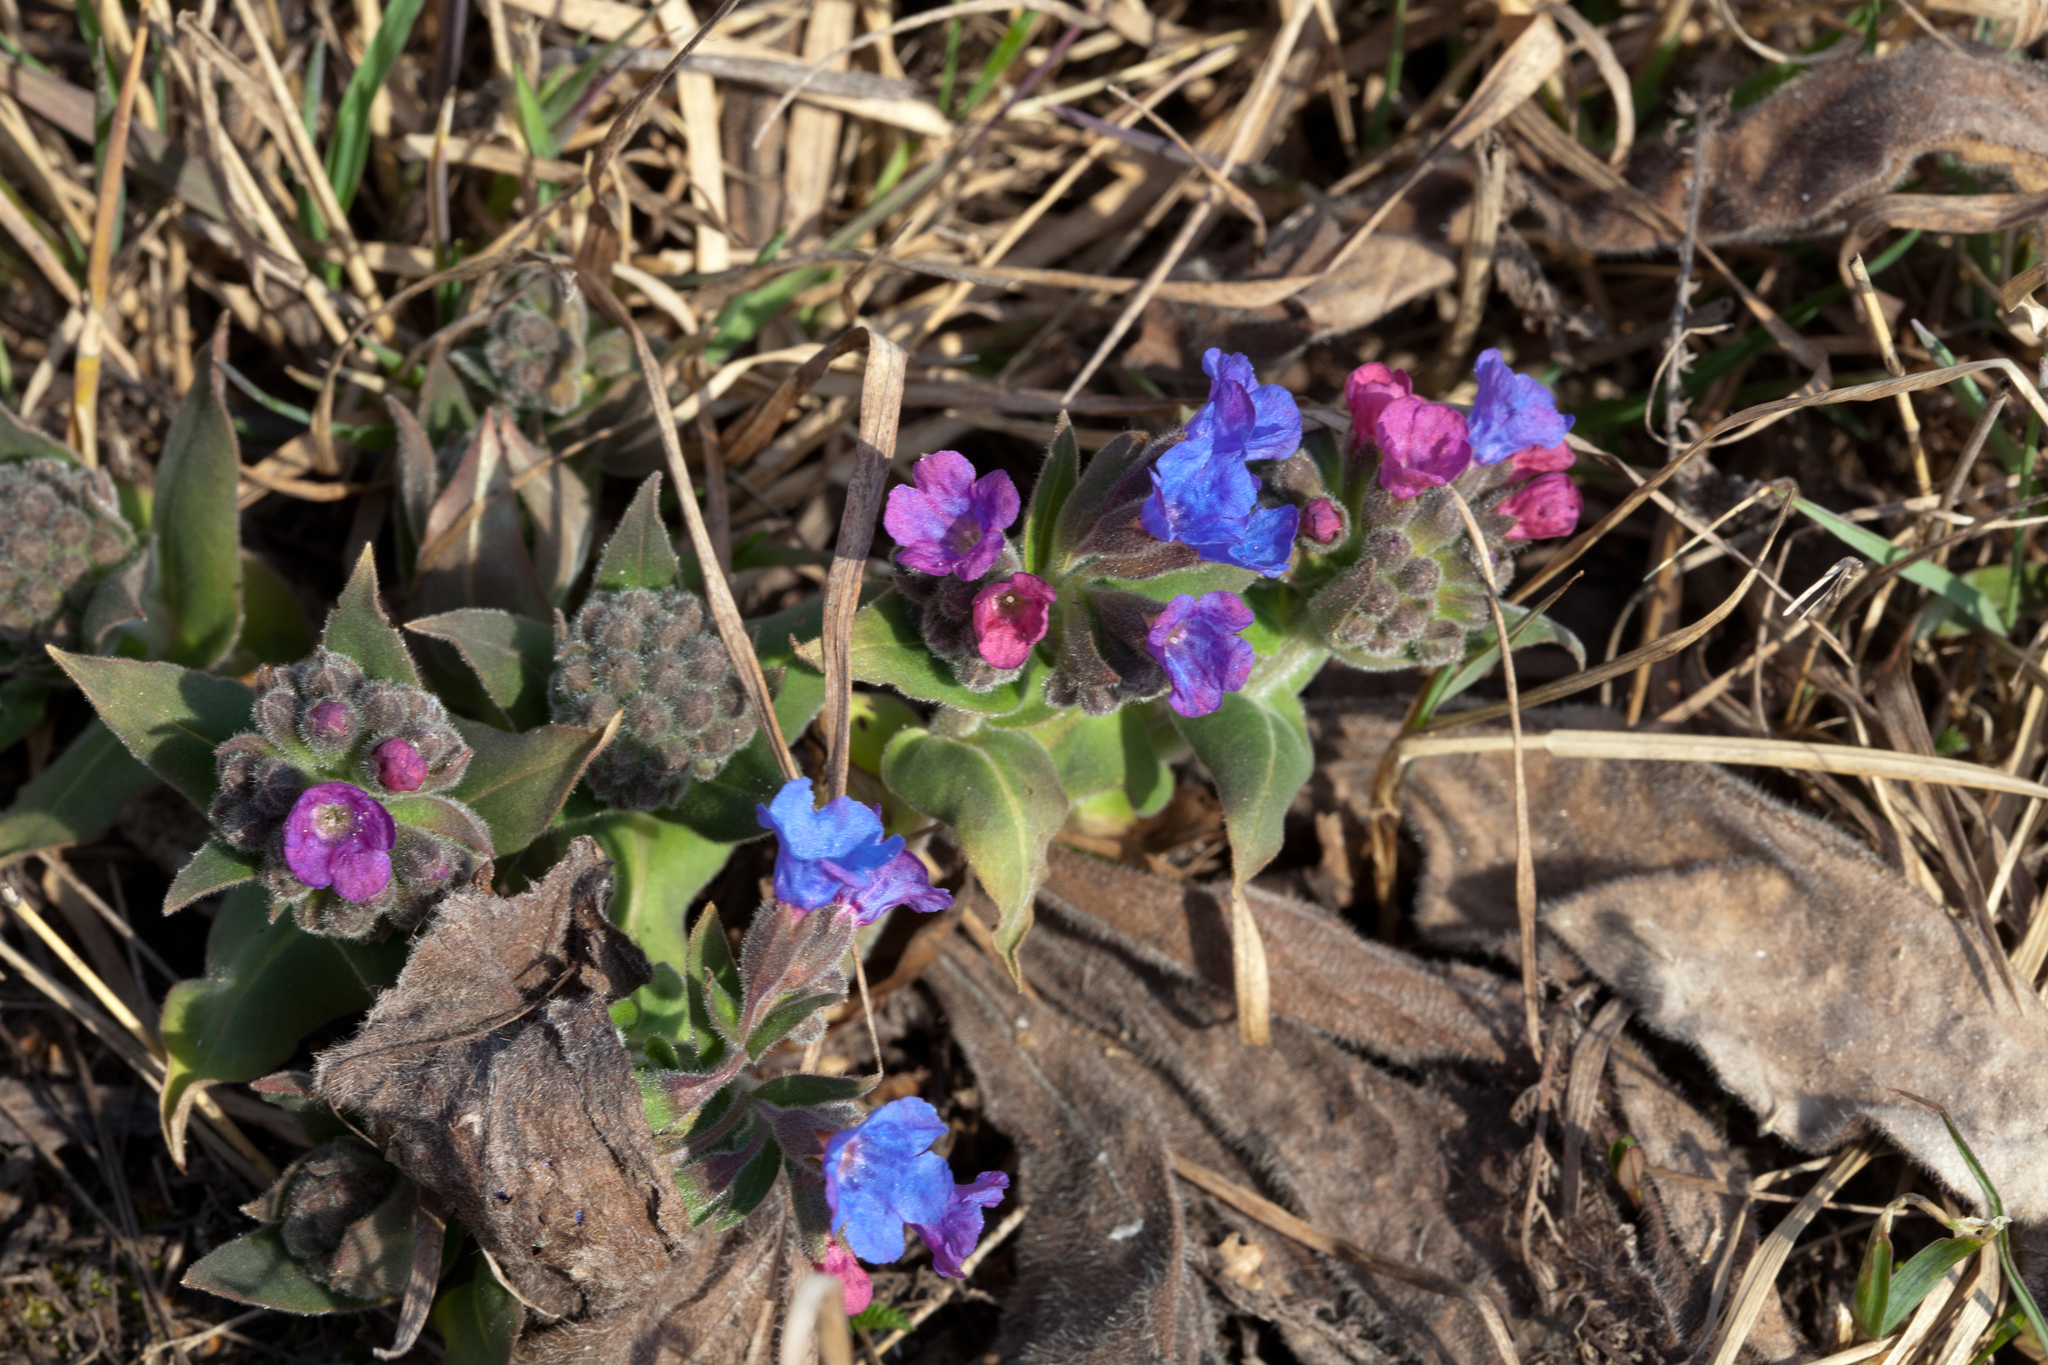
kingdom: Plantae
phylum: Tracheophyta
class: Magnoliopsida
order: Boraginales
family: Boraginaceae
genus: Pulmonaria
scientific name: Pulmonaria mollis
